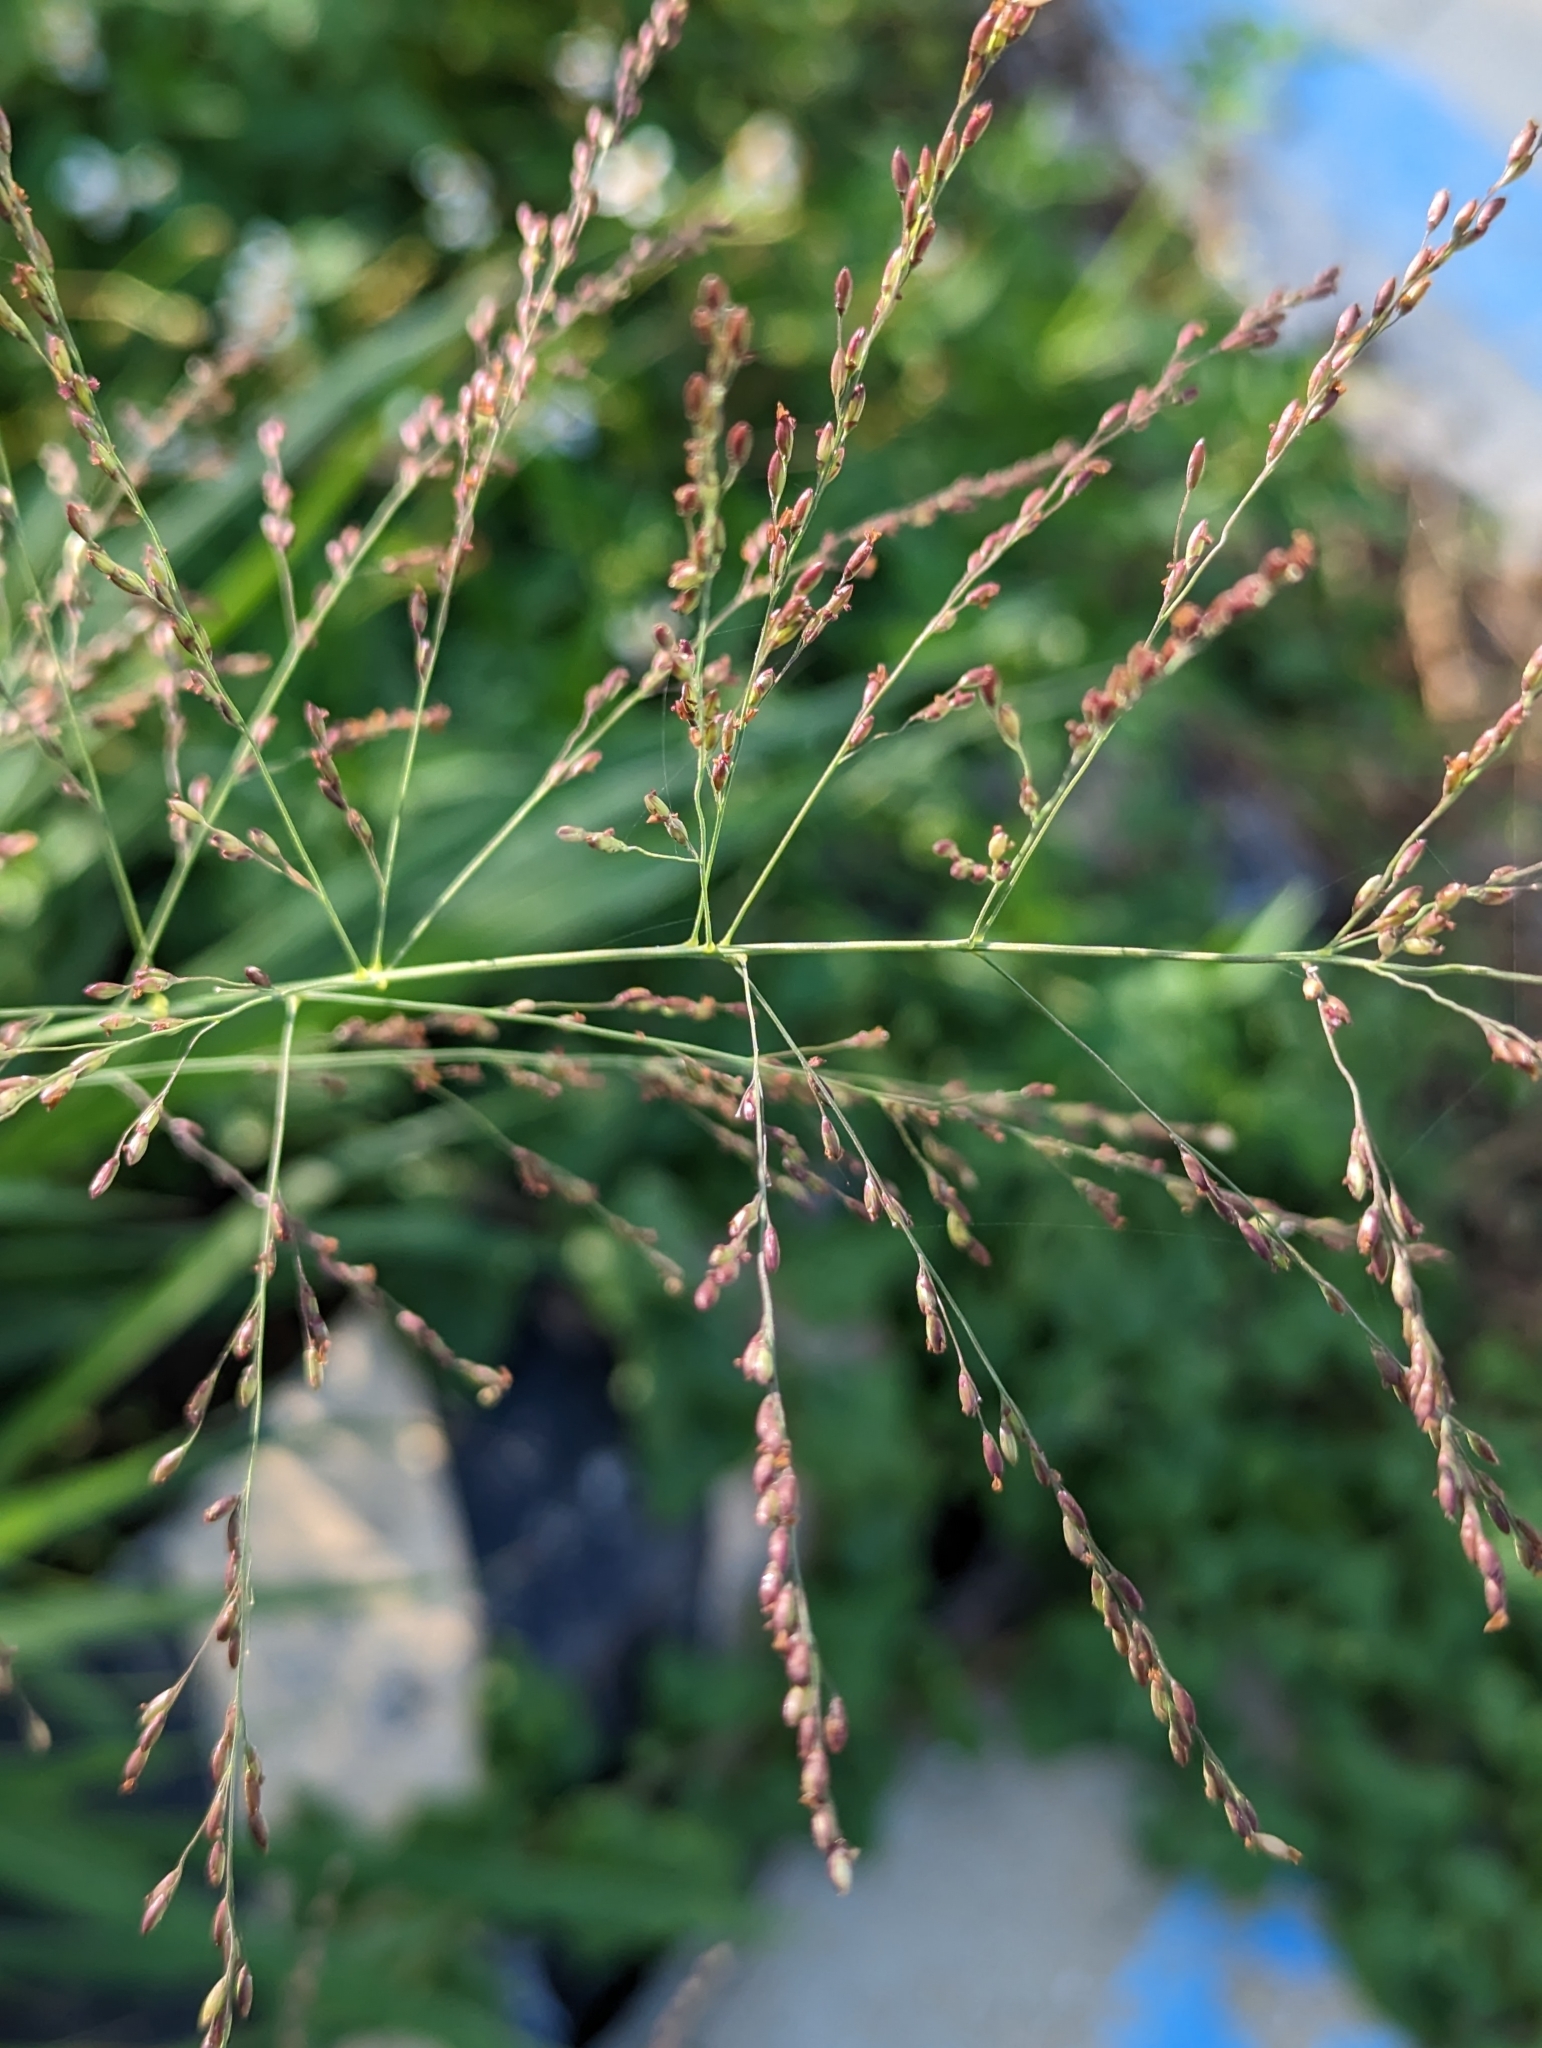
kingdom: Plantae
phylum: Tracheophyta
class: Liliopsida
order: Poales
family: Poaceae
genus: Megathyrsus
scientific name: Megathyrsus maximus
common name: Guineagrass
